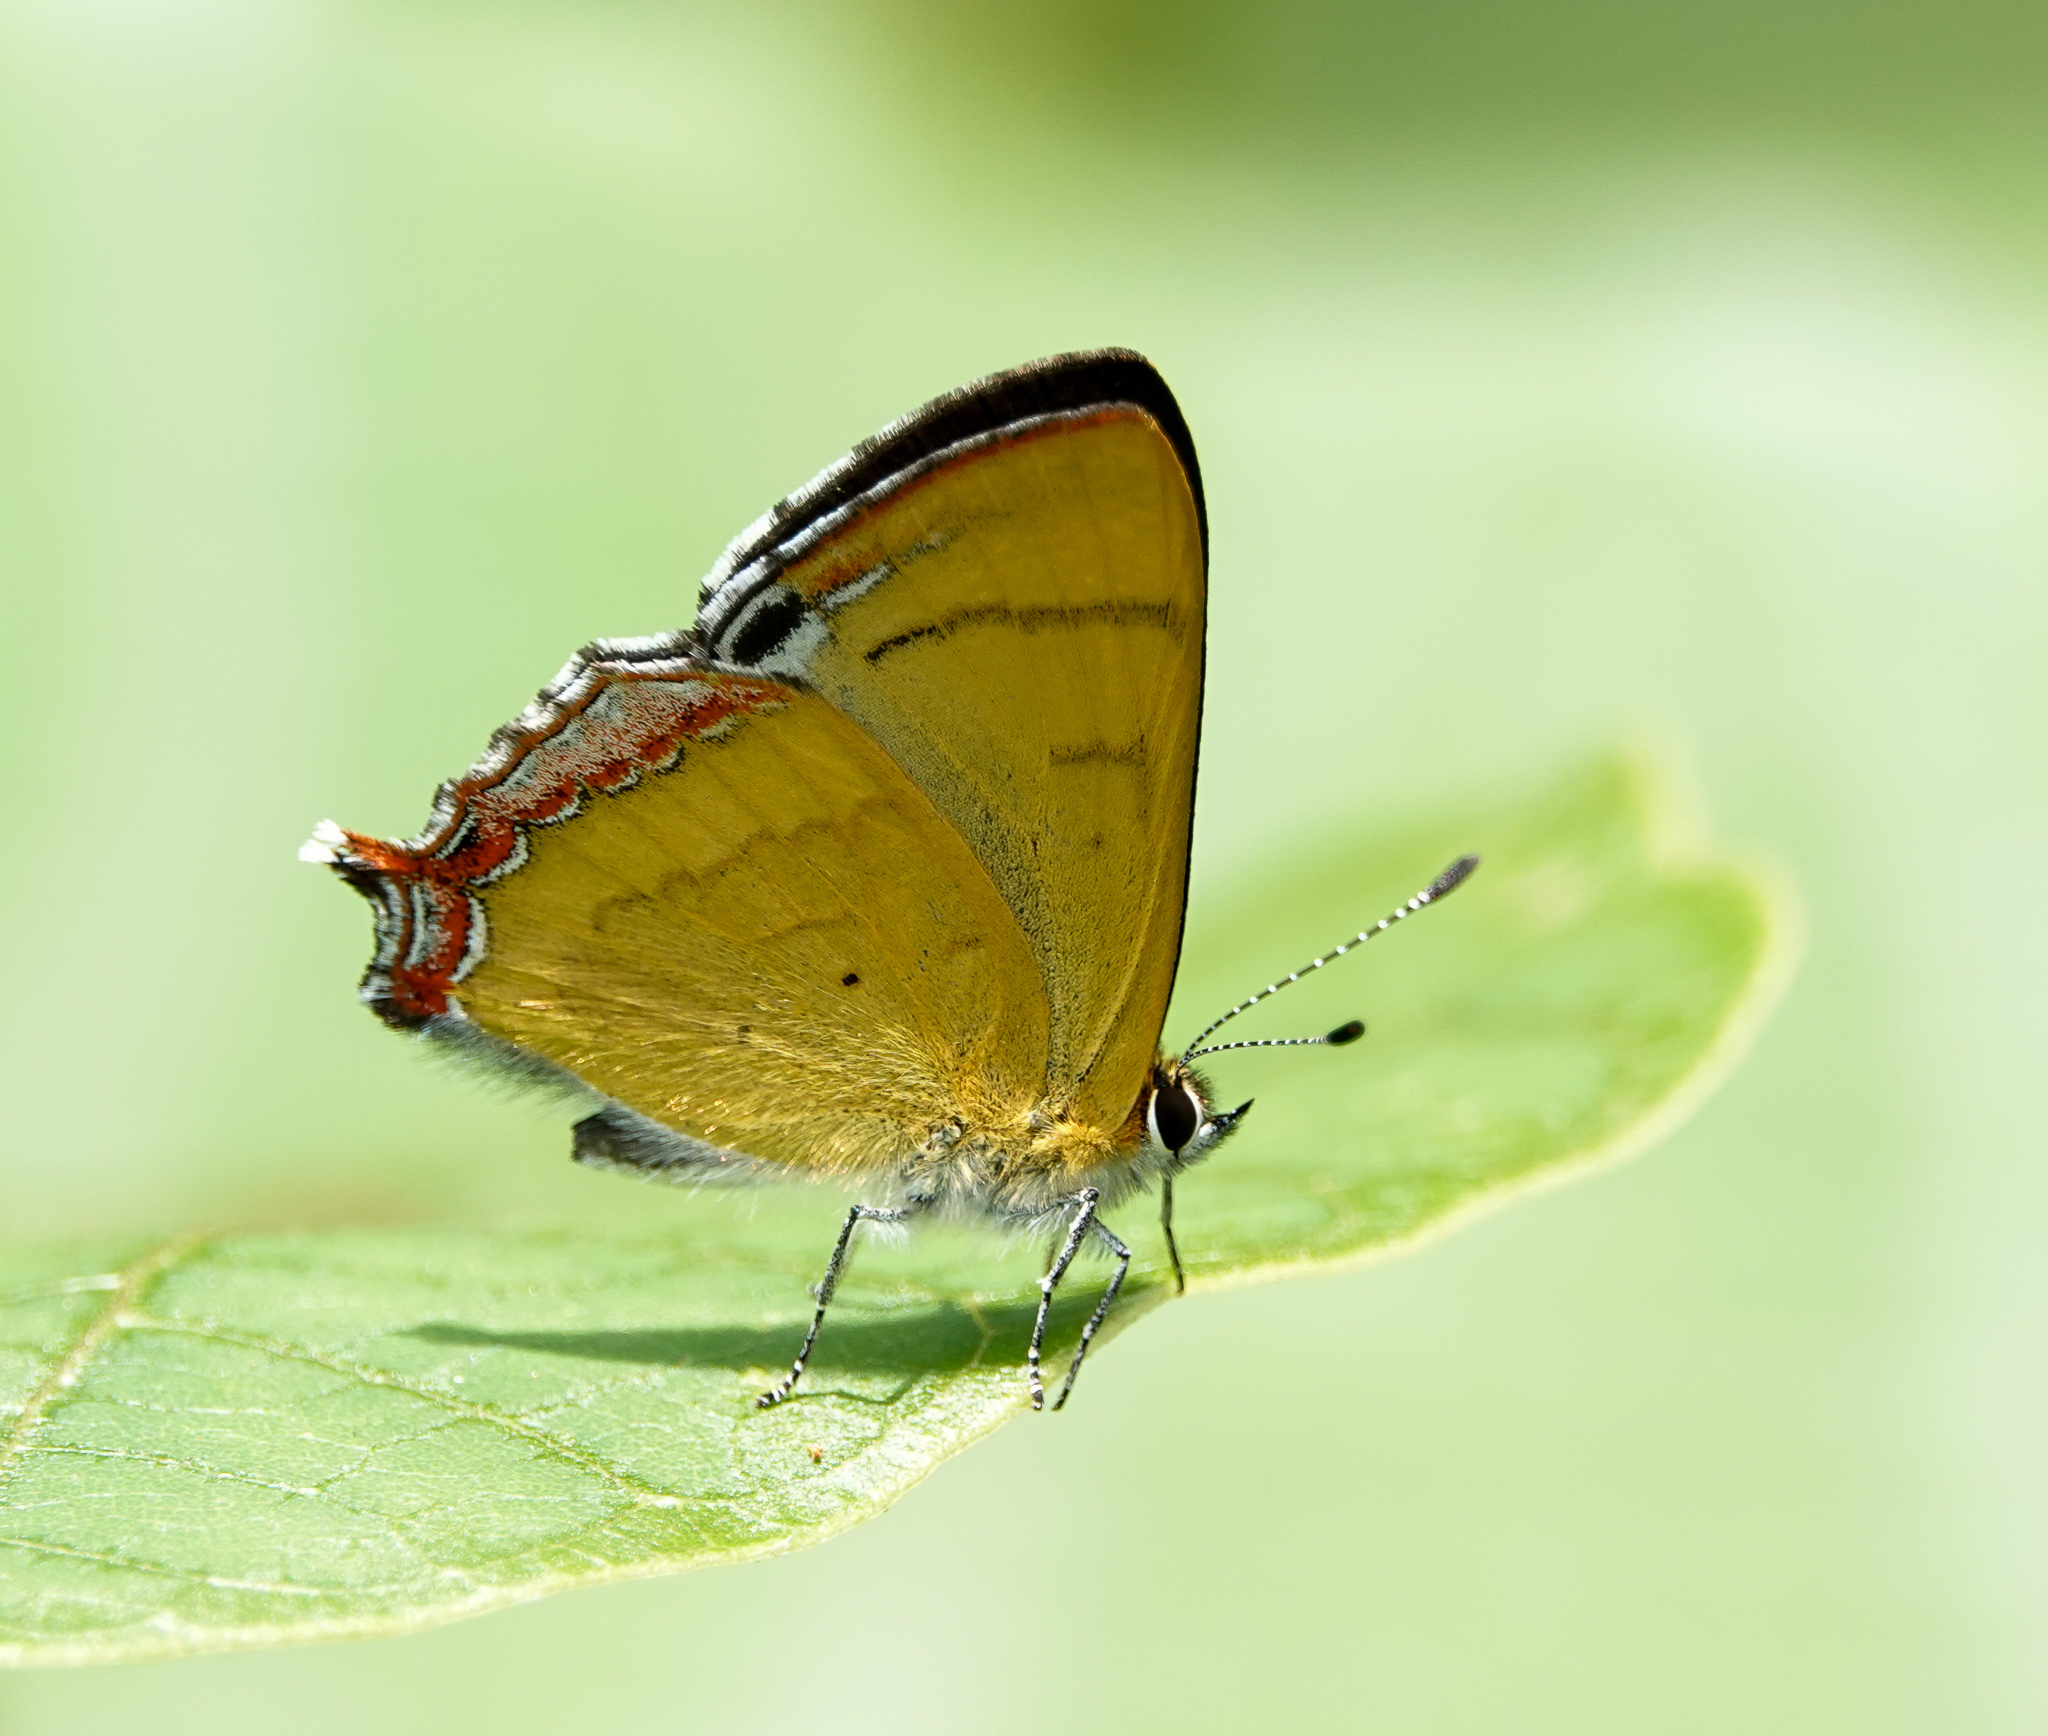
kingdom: Animalia
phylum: Arthropoda
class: Insecta
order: Lepidoptera
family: Lycaenidae
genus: Heliophorus
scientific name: Heliophorus
